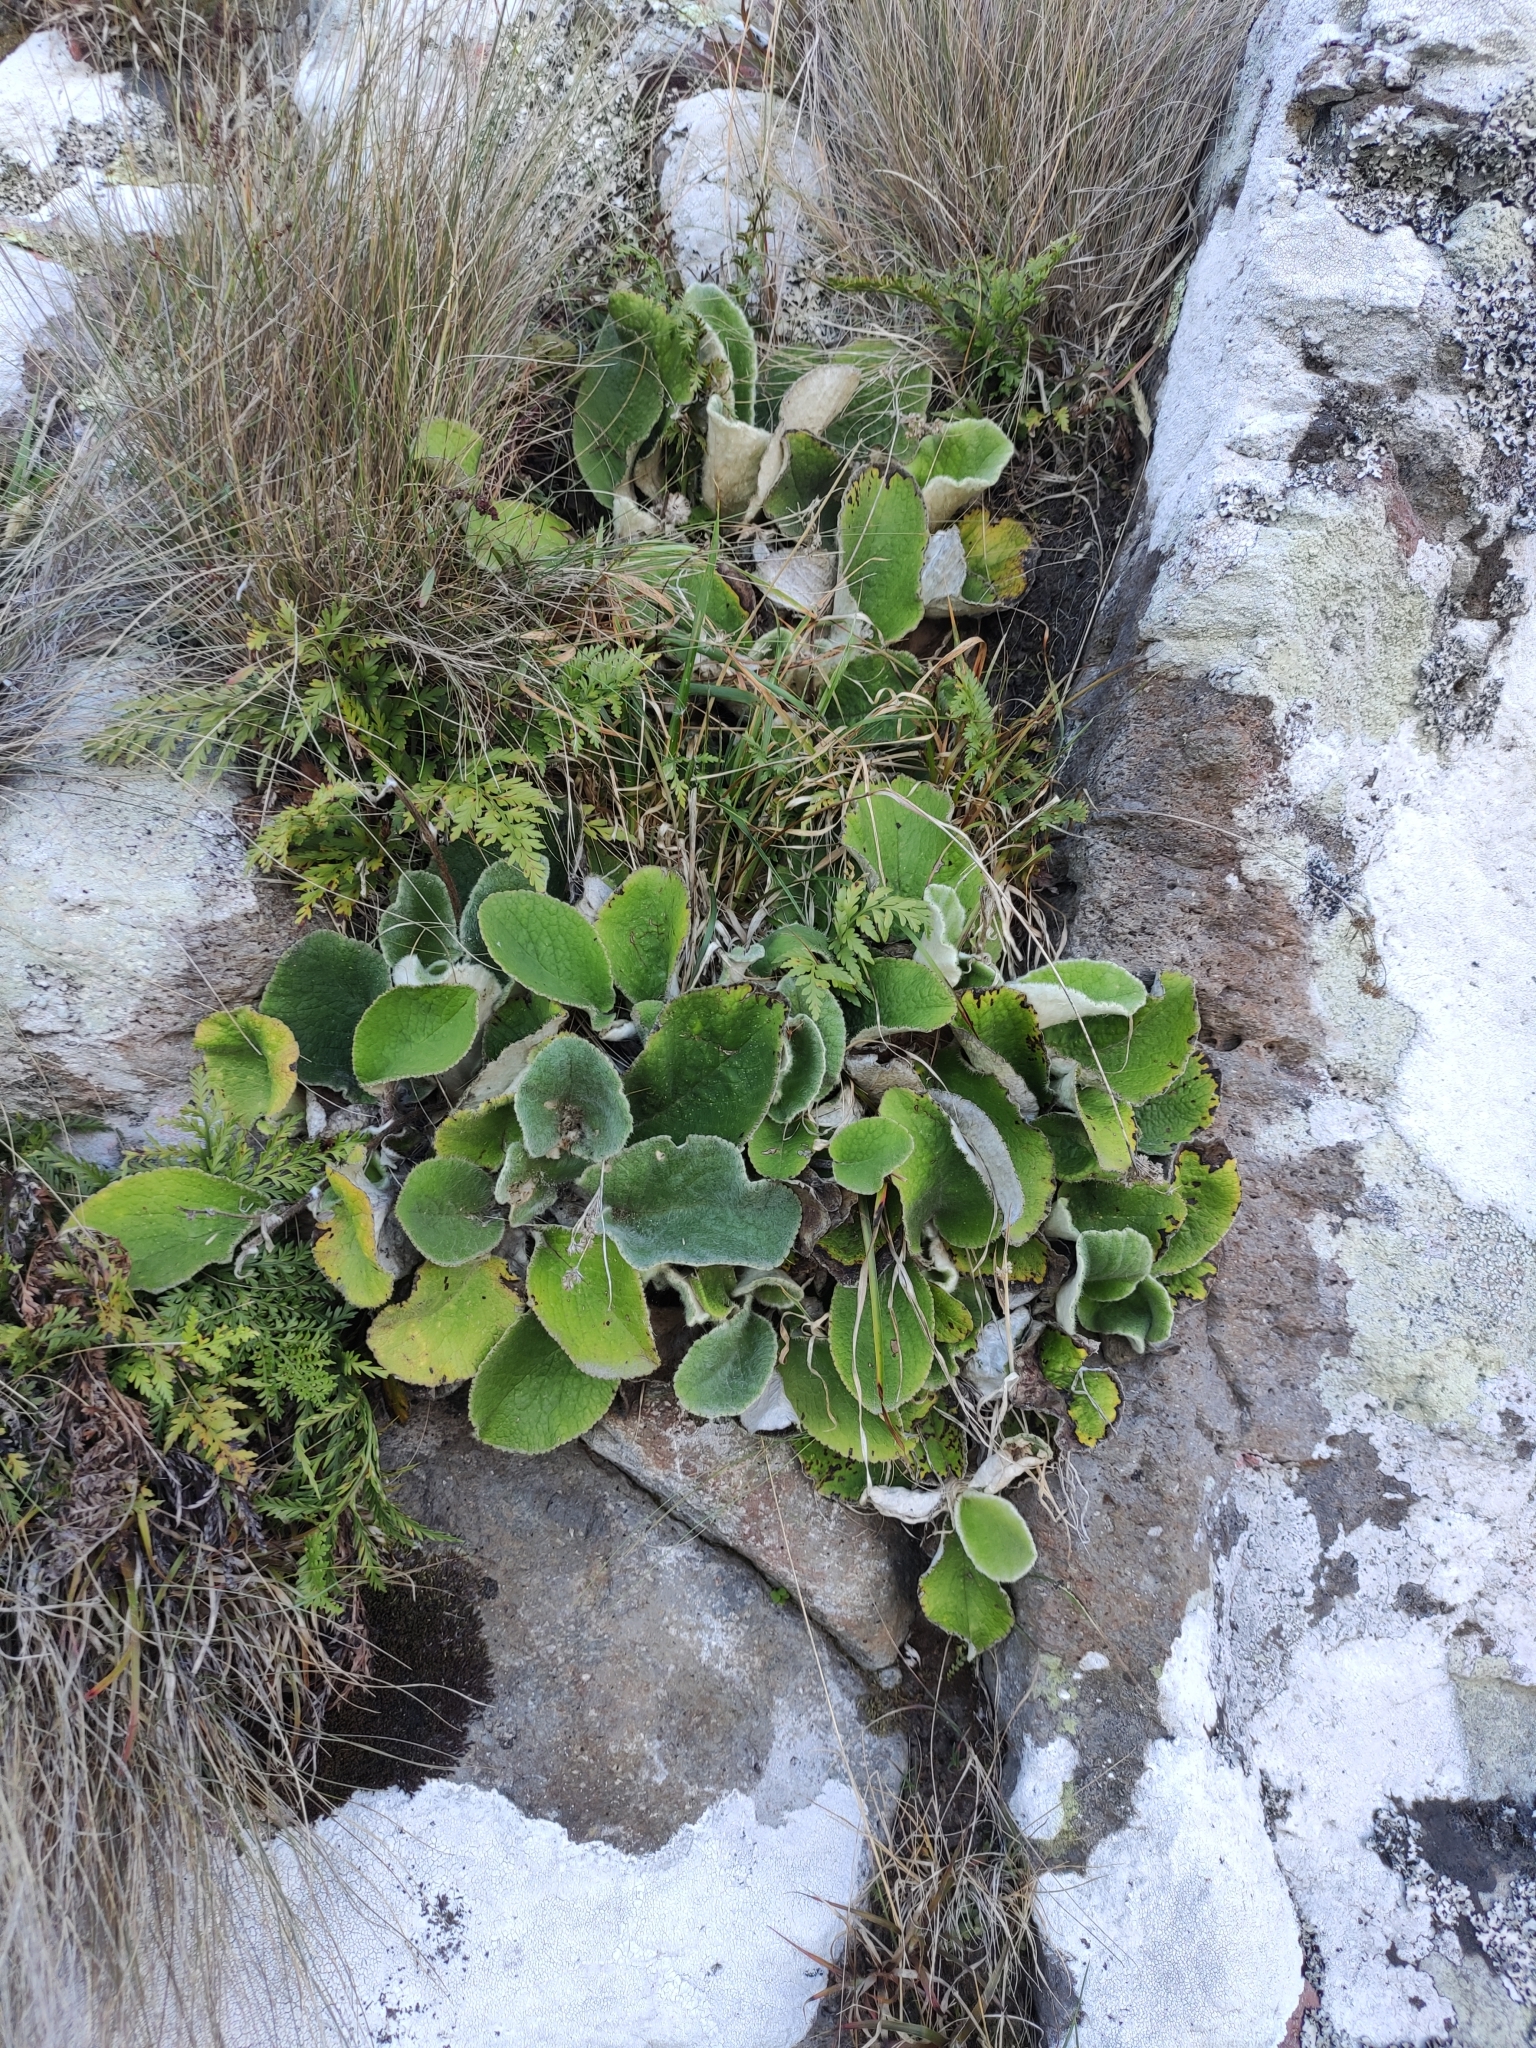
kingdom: Plantae
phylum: Tracheophyta
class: Magnoliopsida
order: Asterales
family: Asteraceae
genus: Brachyglottis
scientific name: Brachyglottis lagopus
